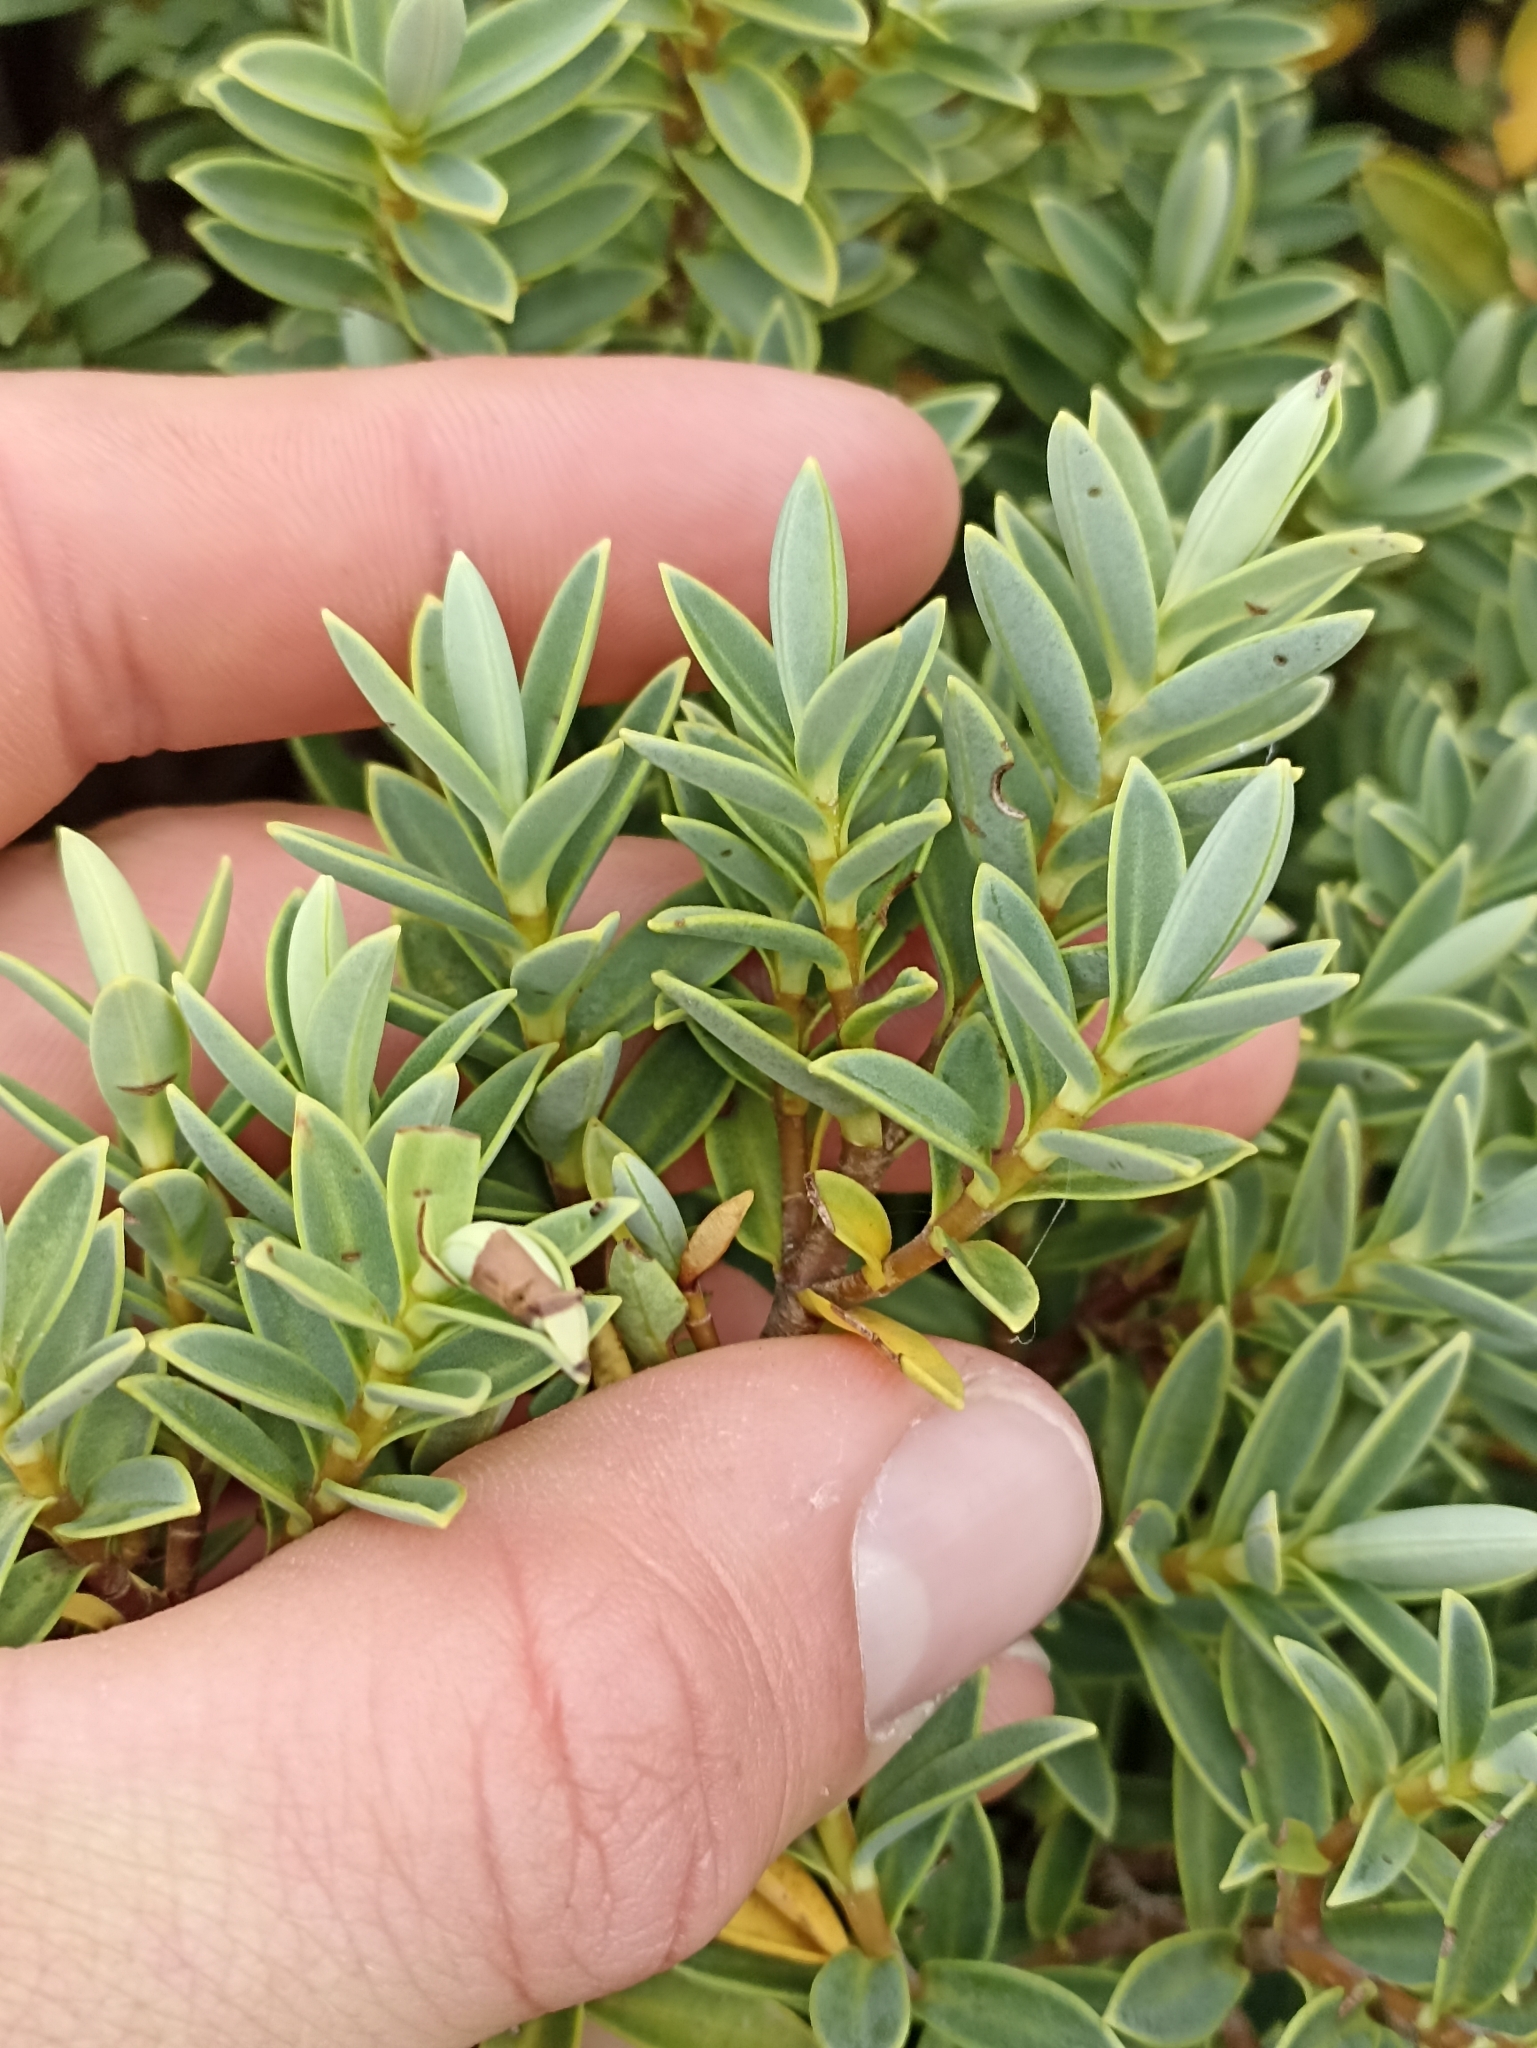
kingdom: Plantae
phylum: Tracheophyta
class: Magnoliopsida
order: Lamiales
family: Plantaginaceae
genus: Veronica
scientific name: Veronica topiaria
